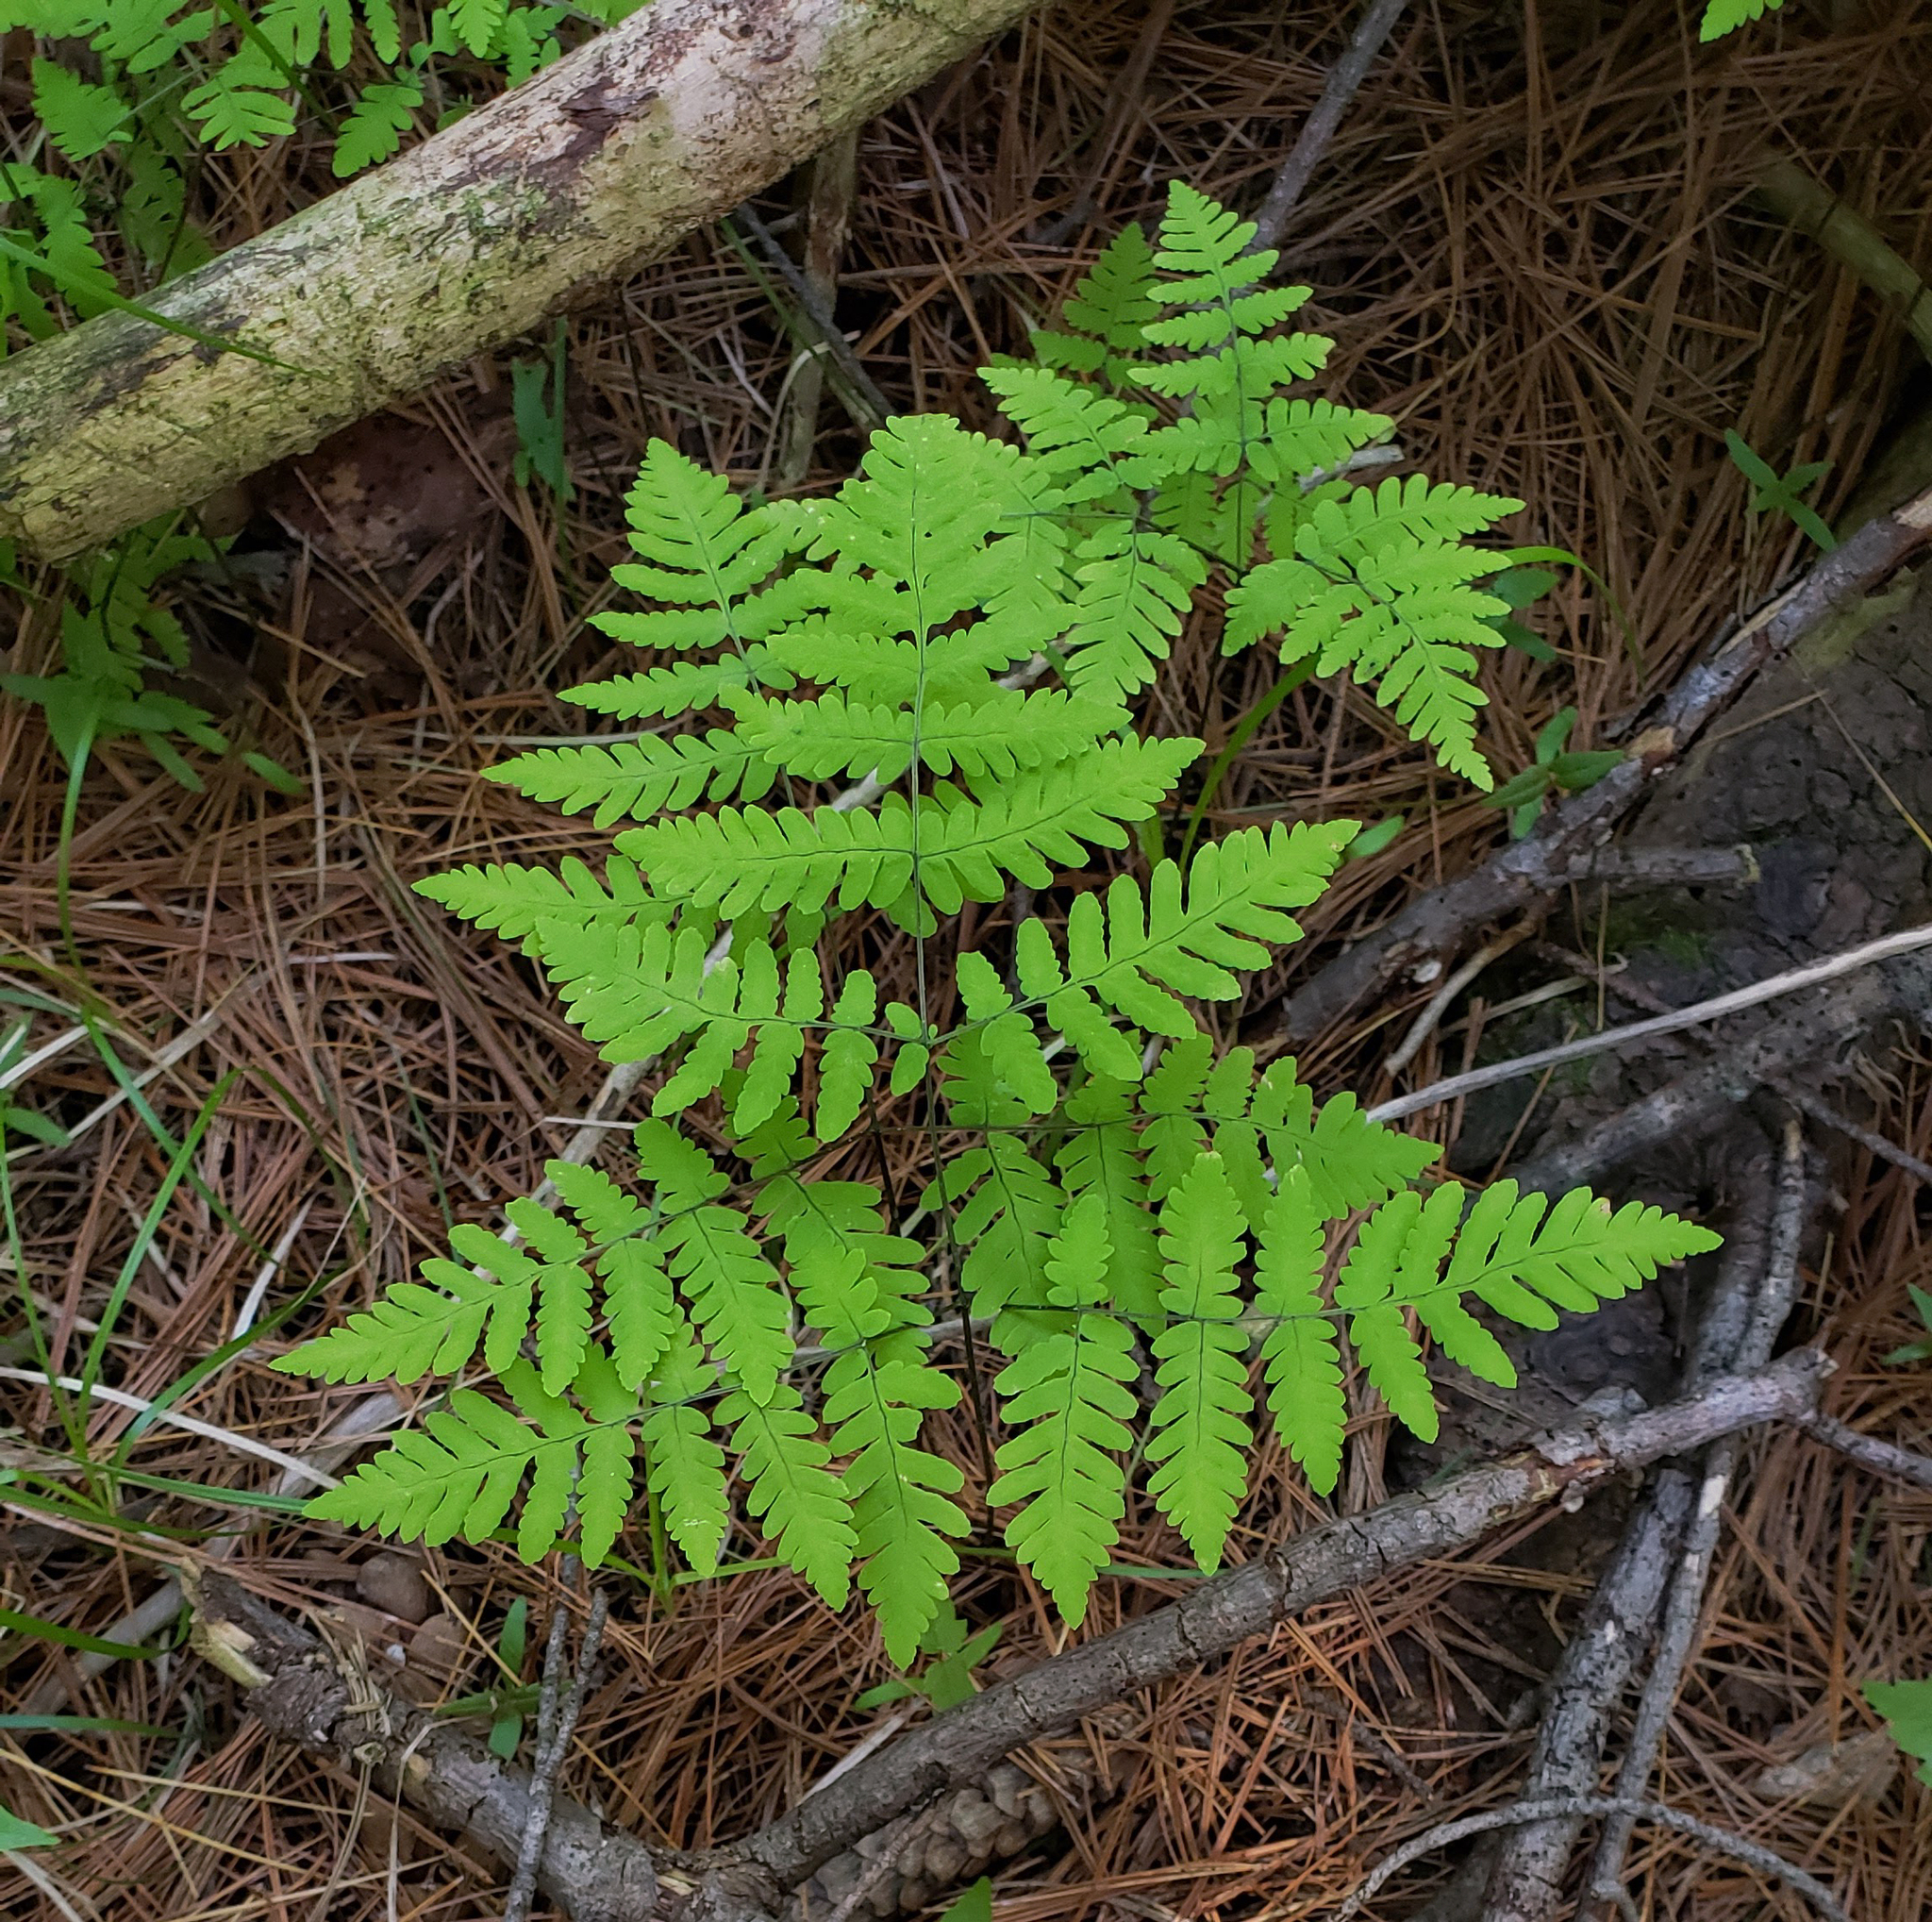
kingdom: Plantae
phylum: Tracheophyta
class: Polypodiopsida
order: Polypodiales
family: Cystopteridaceae
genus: Gymnocarpium
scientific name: Gymnocarpium dryopteris
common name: Oak fern
